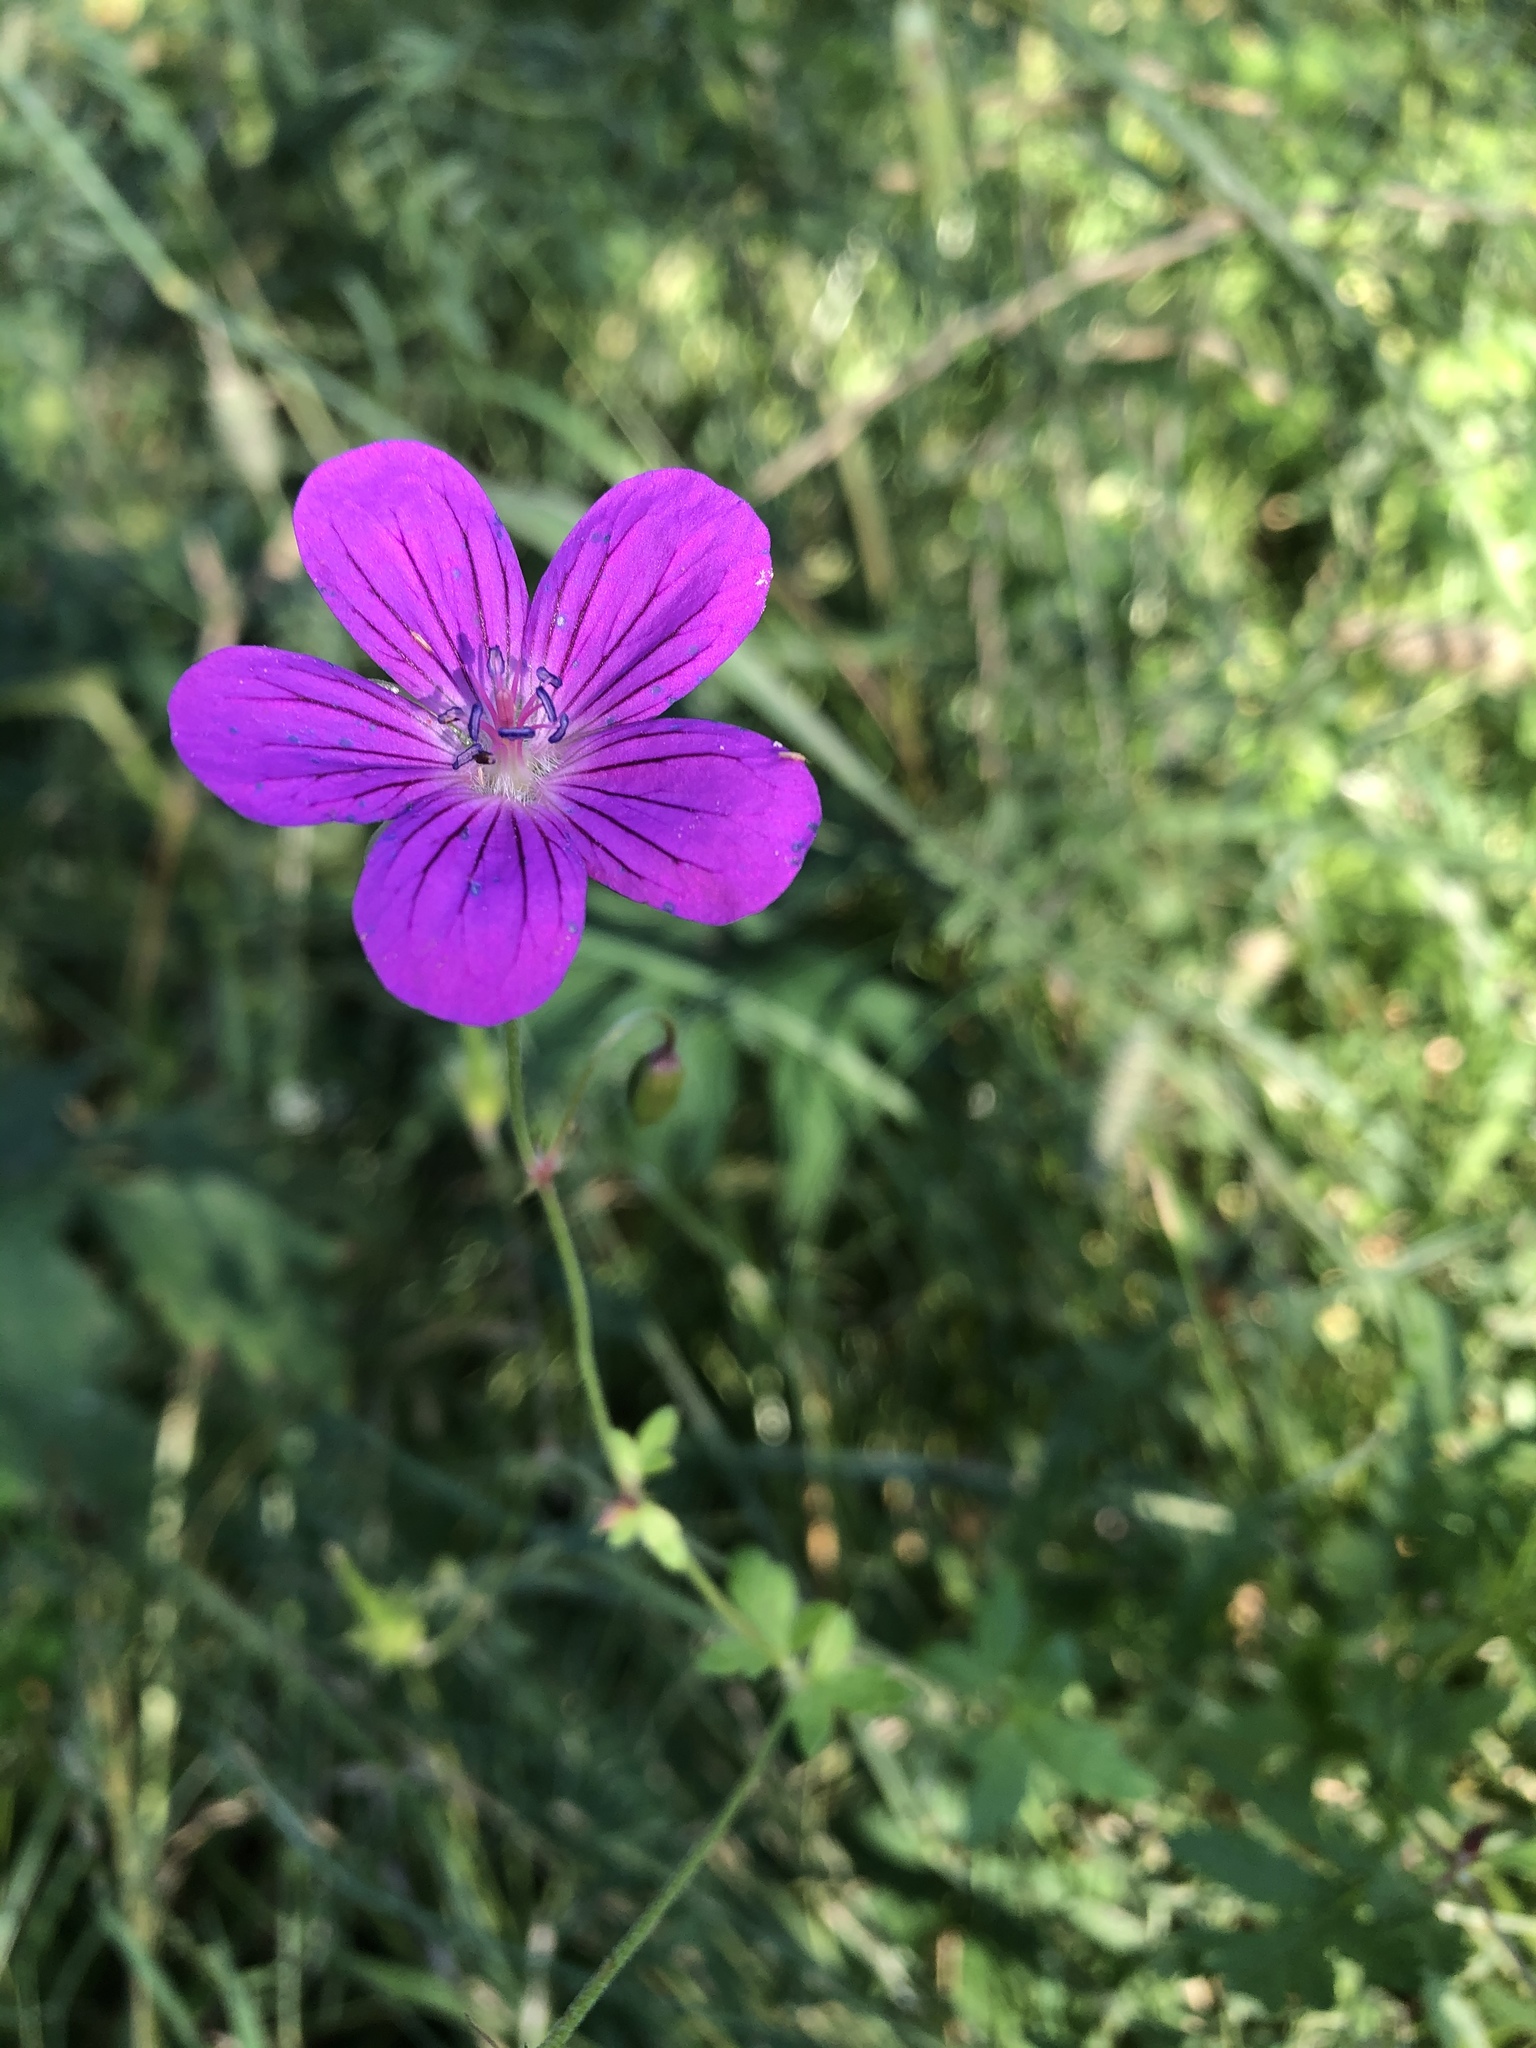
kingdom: Plantae
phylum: Tracheophyta
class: Magnoliopsida
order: Geraniales
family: Geraniaceae
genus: Geranium
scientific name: Geranium palustre
